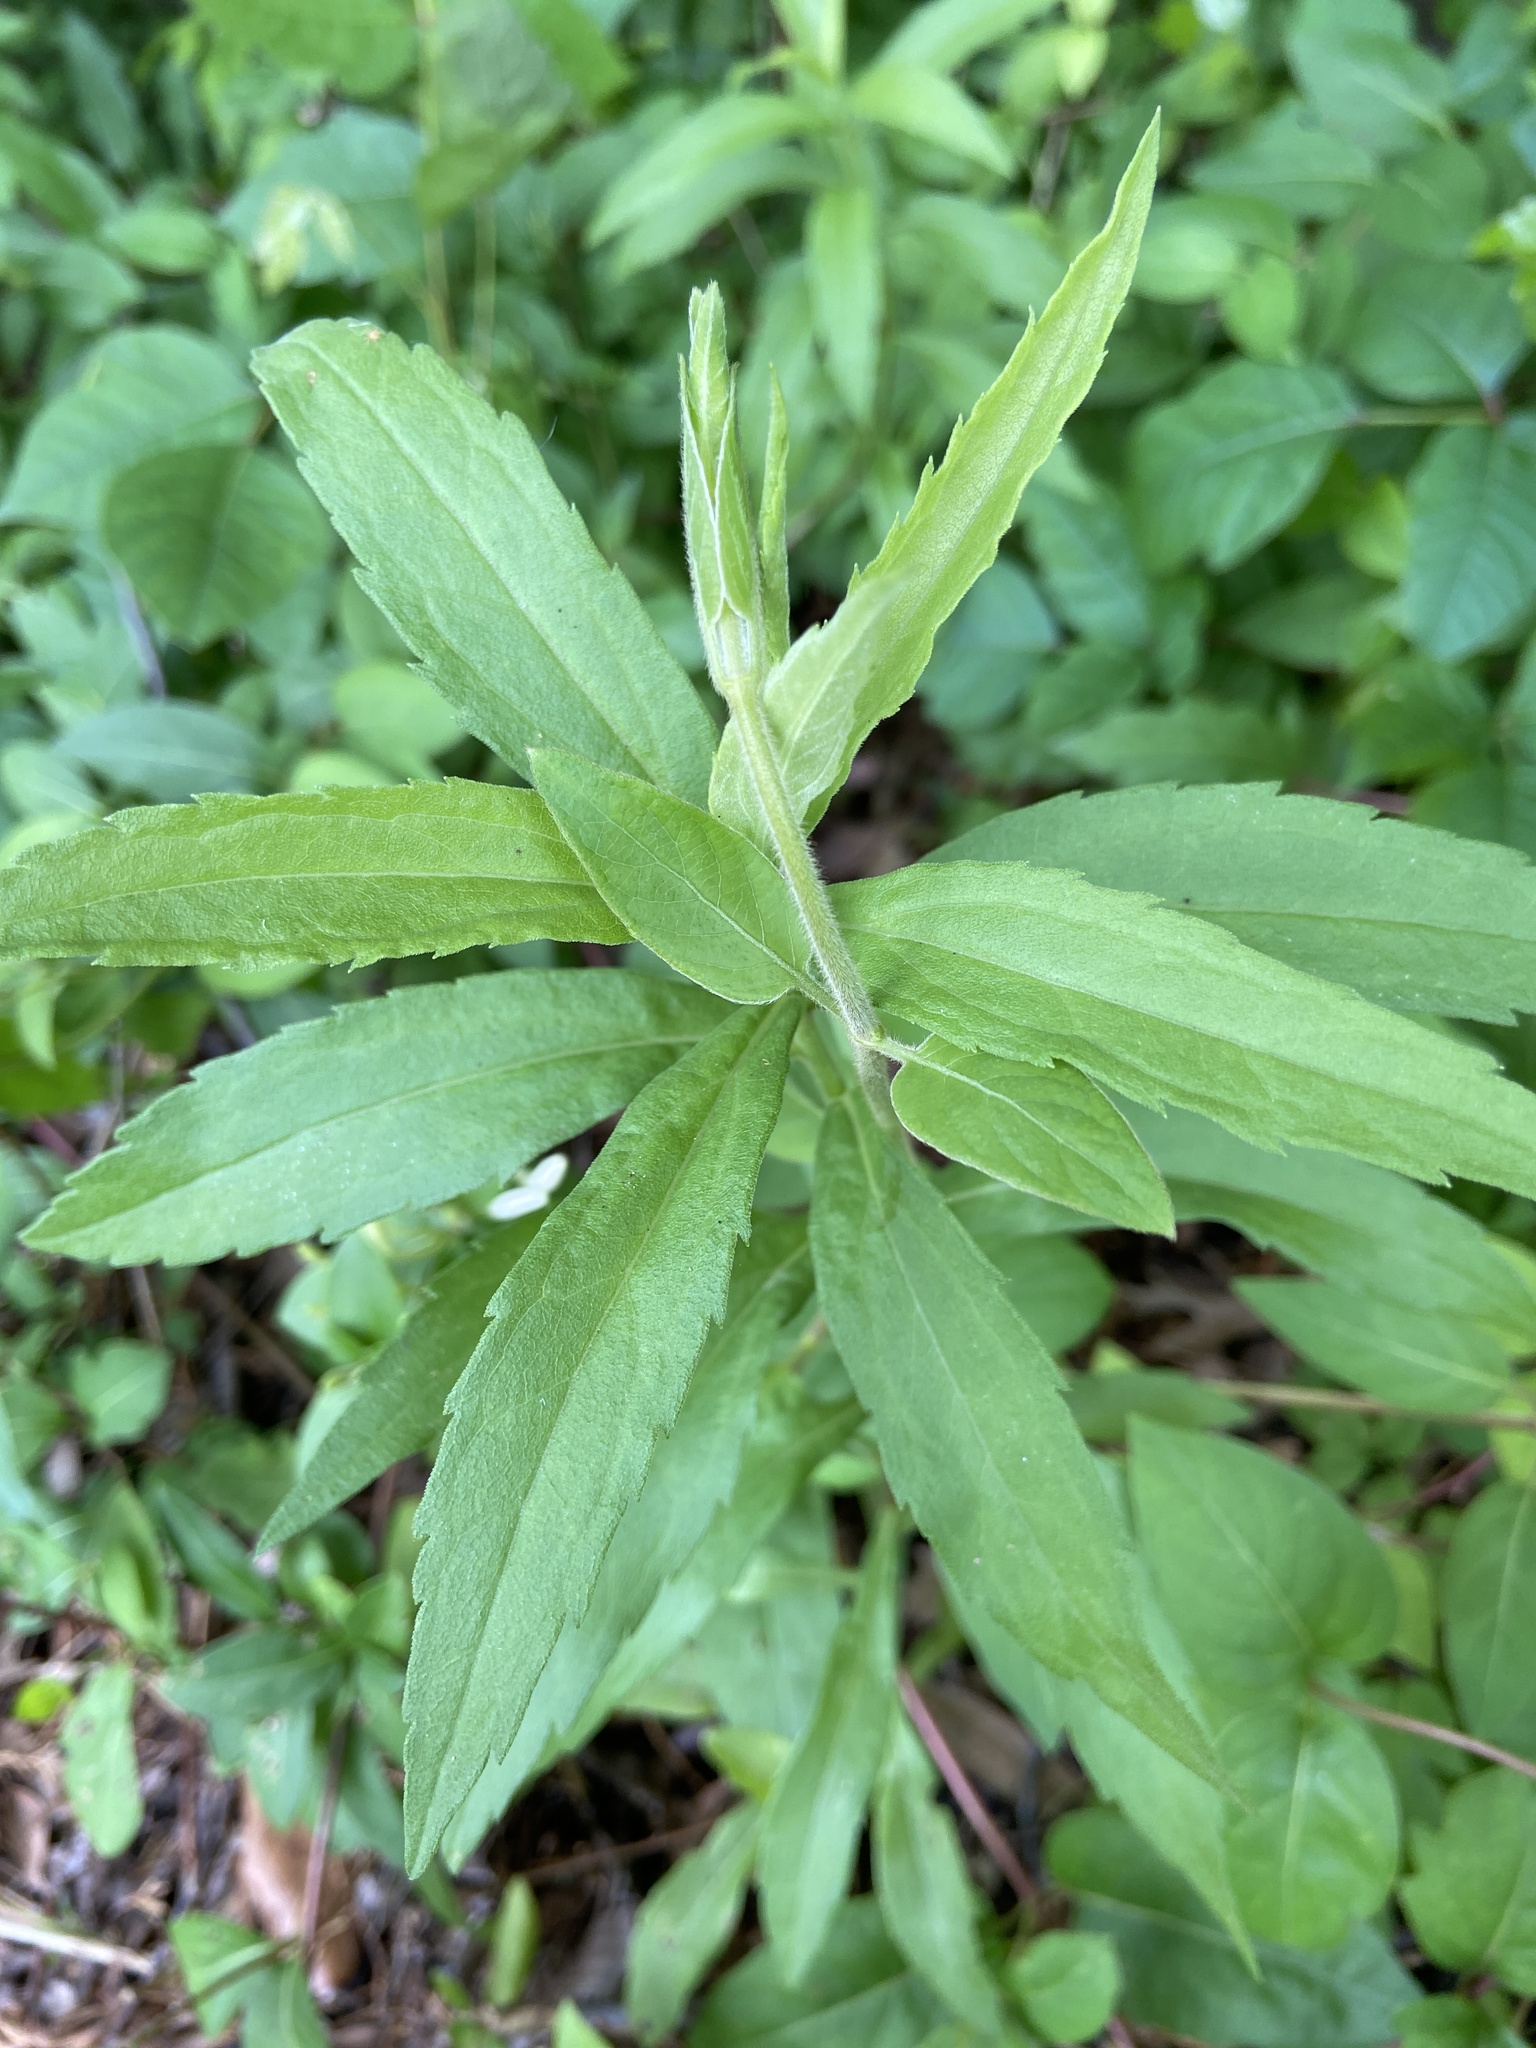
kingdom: Plantae
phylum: Tracheophyta
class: Magnoliopsida
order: Asterales
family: Asteraceae
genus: Solidago
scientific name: Solidago altissima
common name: Late goldenrod
